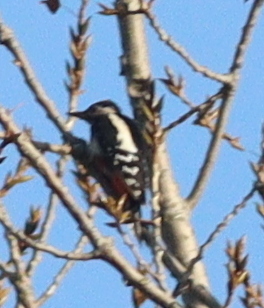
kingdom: Animalia
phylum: Chordata
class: Aves
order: Piciformes
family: Picidae
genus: Dendrocopos
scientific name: Dendrocopos major
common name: Great spotted woodpecker
